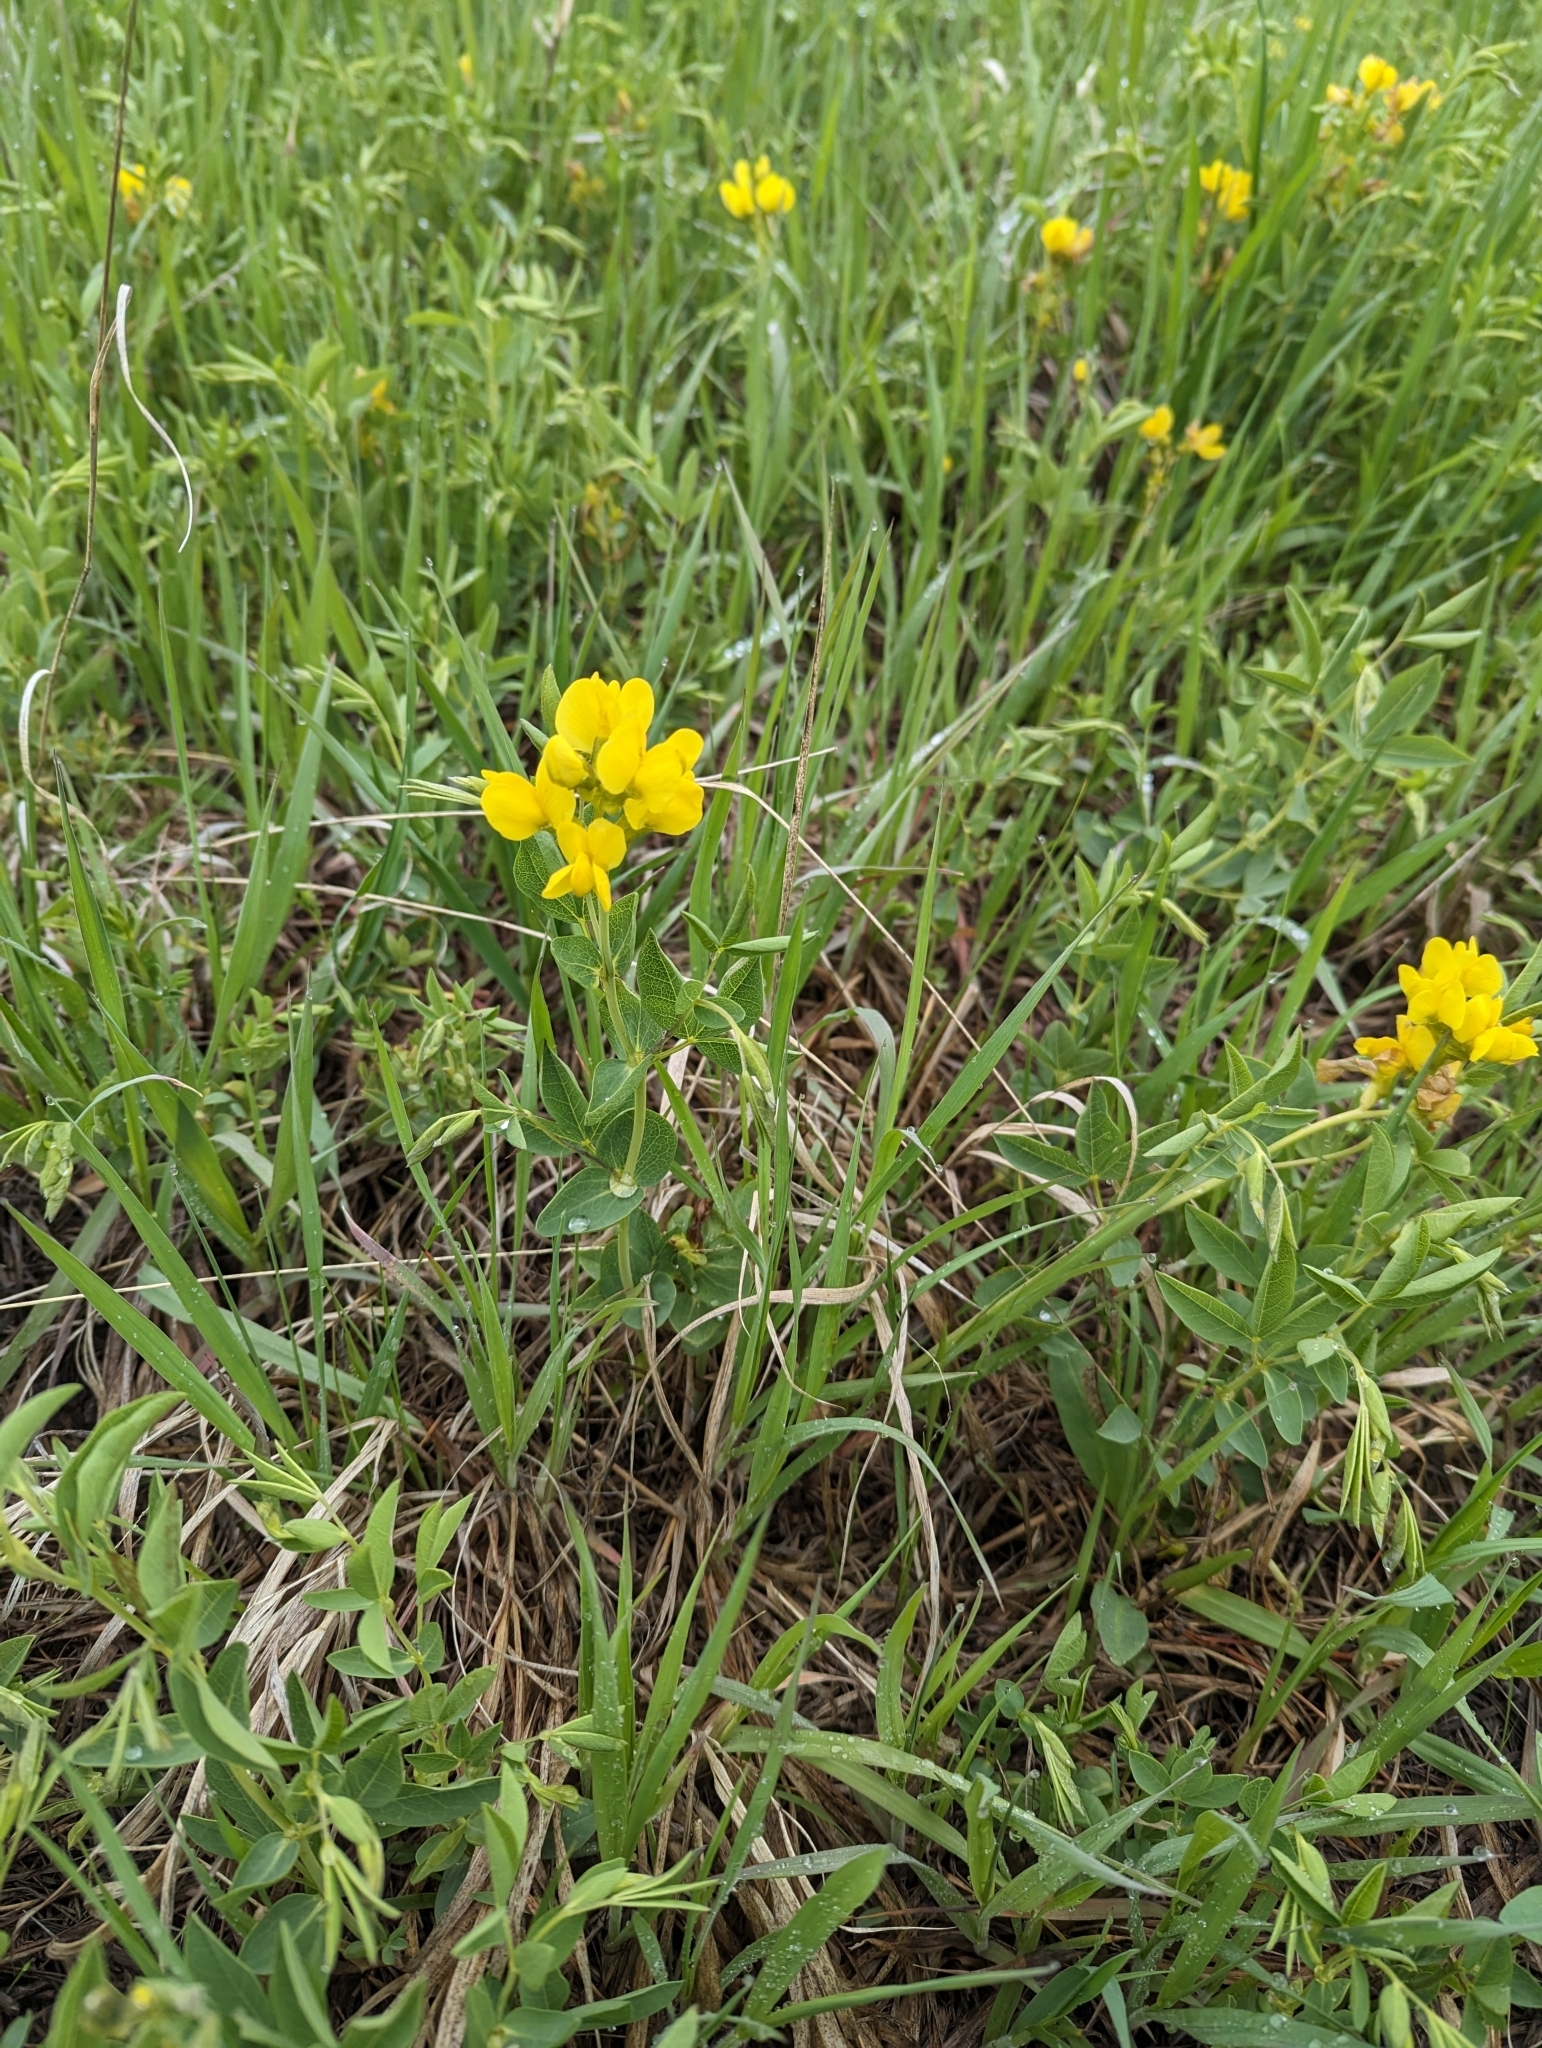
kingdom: Plantae
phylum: Tracheophyta
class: Magnoliopsida
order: Fabales
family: Fabaceae
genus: Thermopsis
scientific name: Thermopsis rhombifolia
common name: Circle-pod-pea
